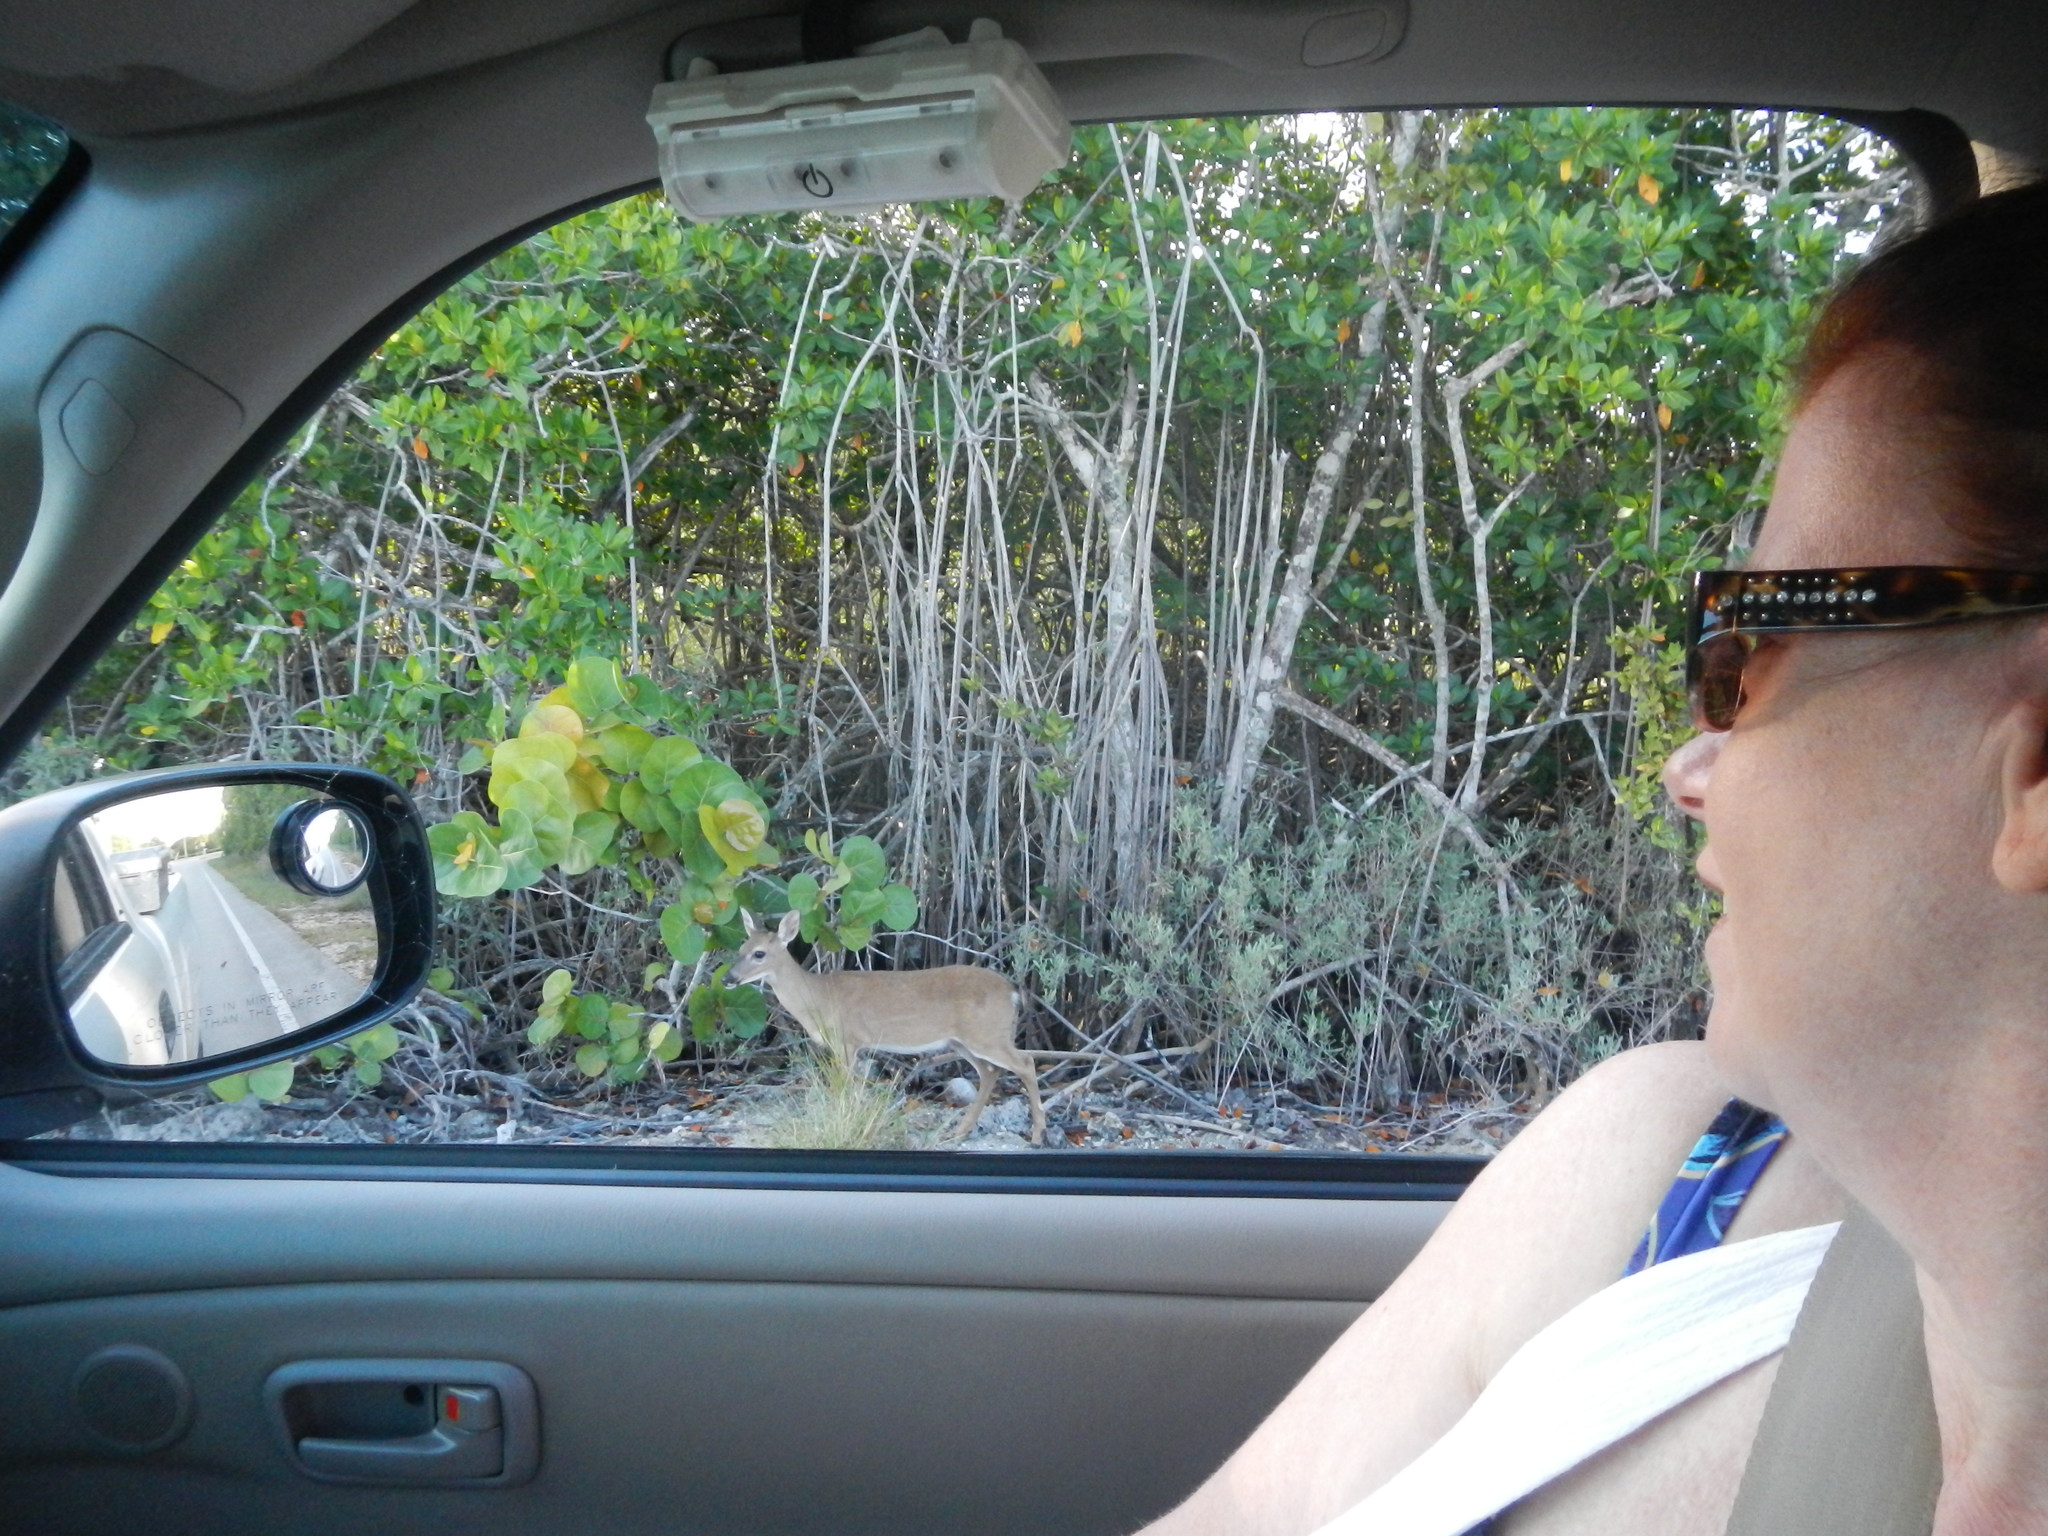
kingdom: Animalia
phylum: Chordata
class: Mammalia
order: Artiodactyla
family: Cervidae
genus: Odocoileus
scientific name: Odocoileus virginianus
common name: White-tailed deer
